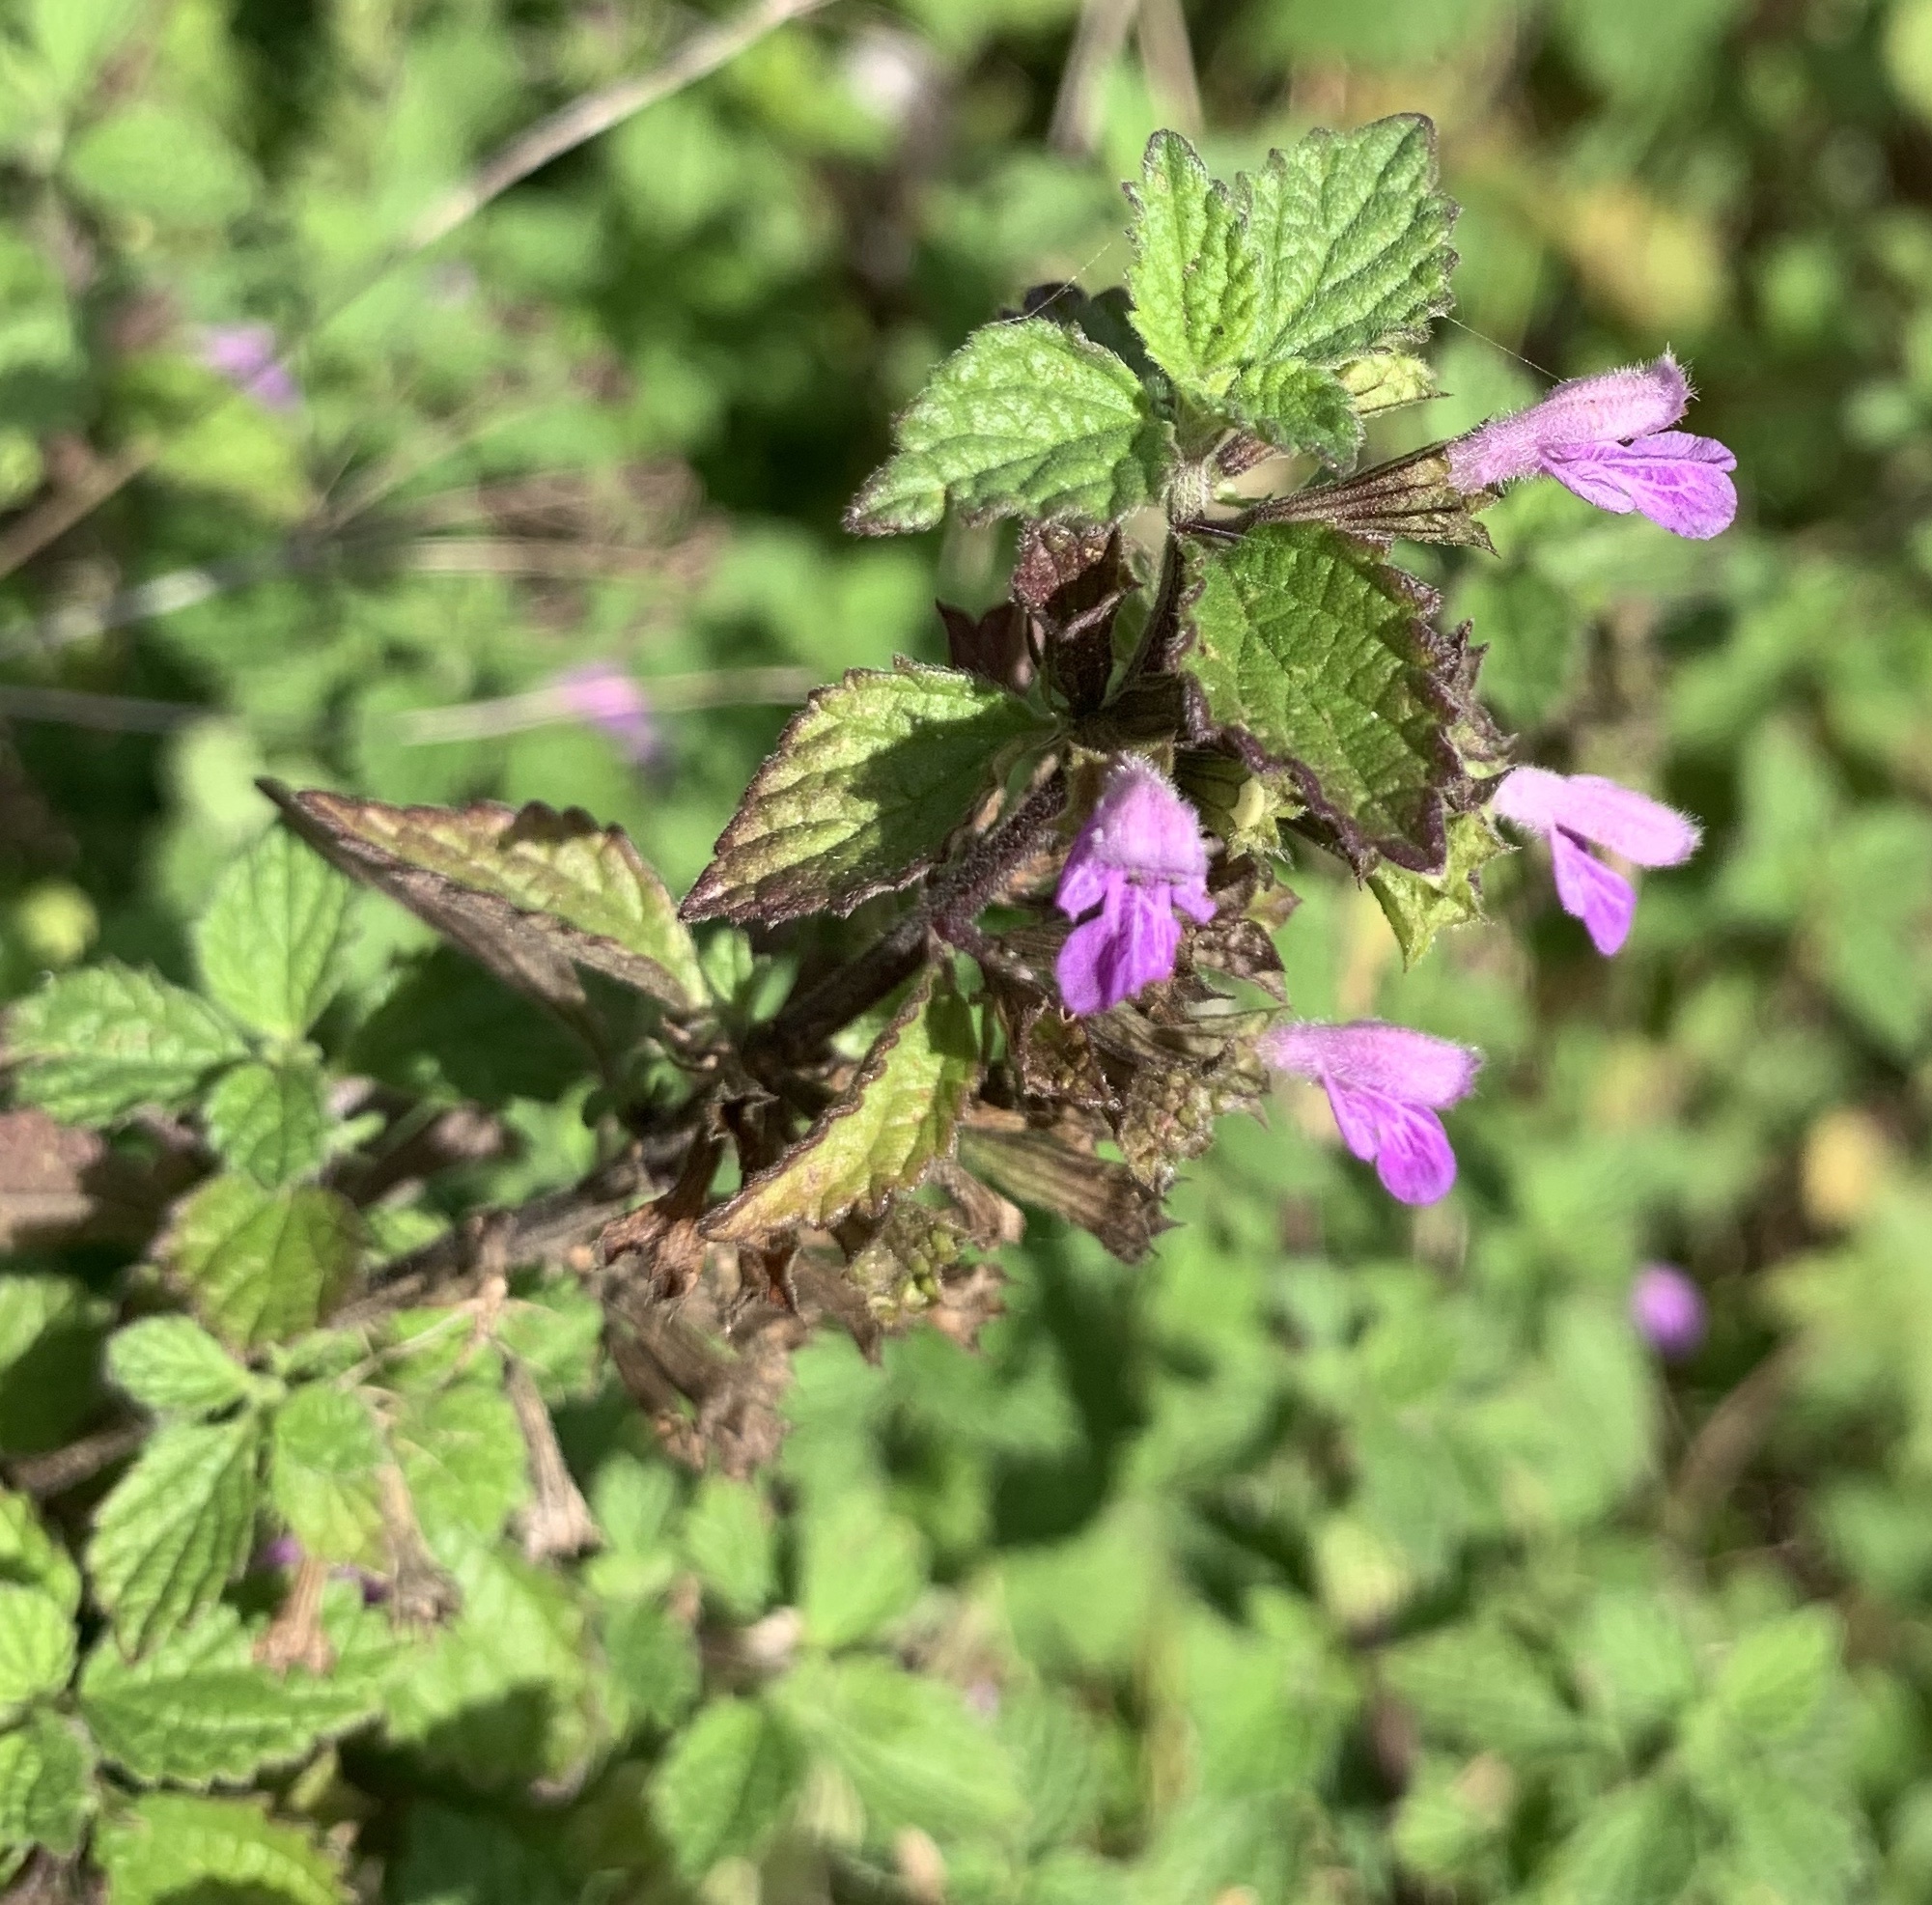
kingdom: Plantae
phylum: Tracheophyta
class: Magnoliopsida
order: Lamiales
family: Lamiaceae
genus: Ballota
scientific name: Ballota nigra
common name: Black horehound
